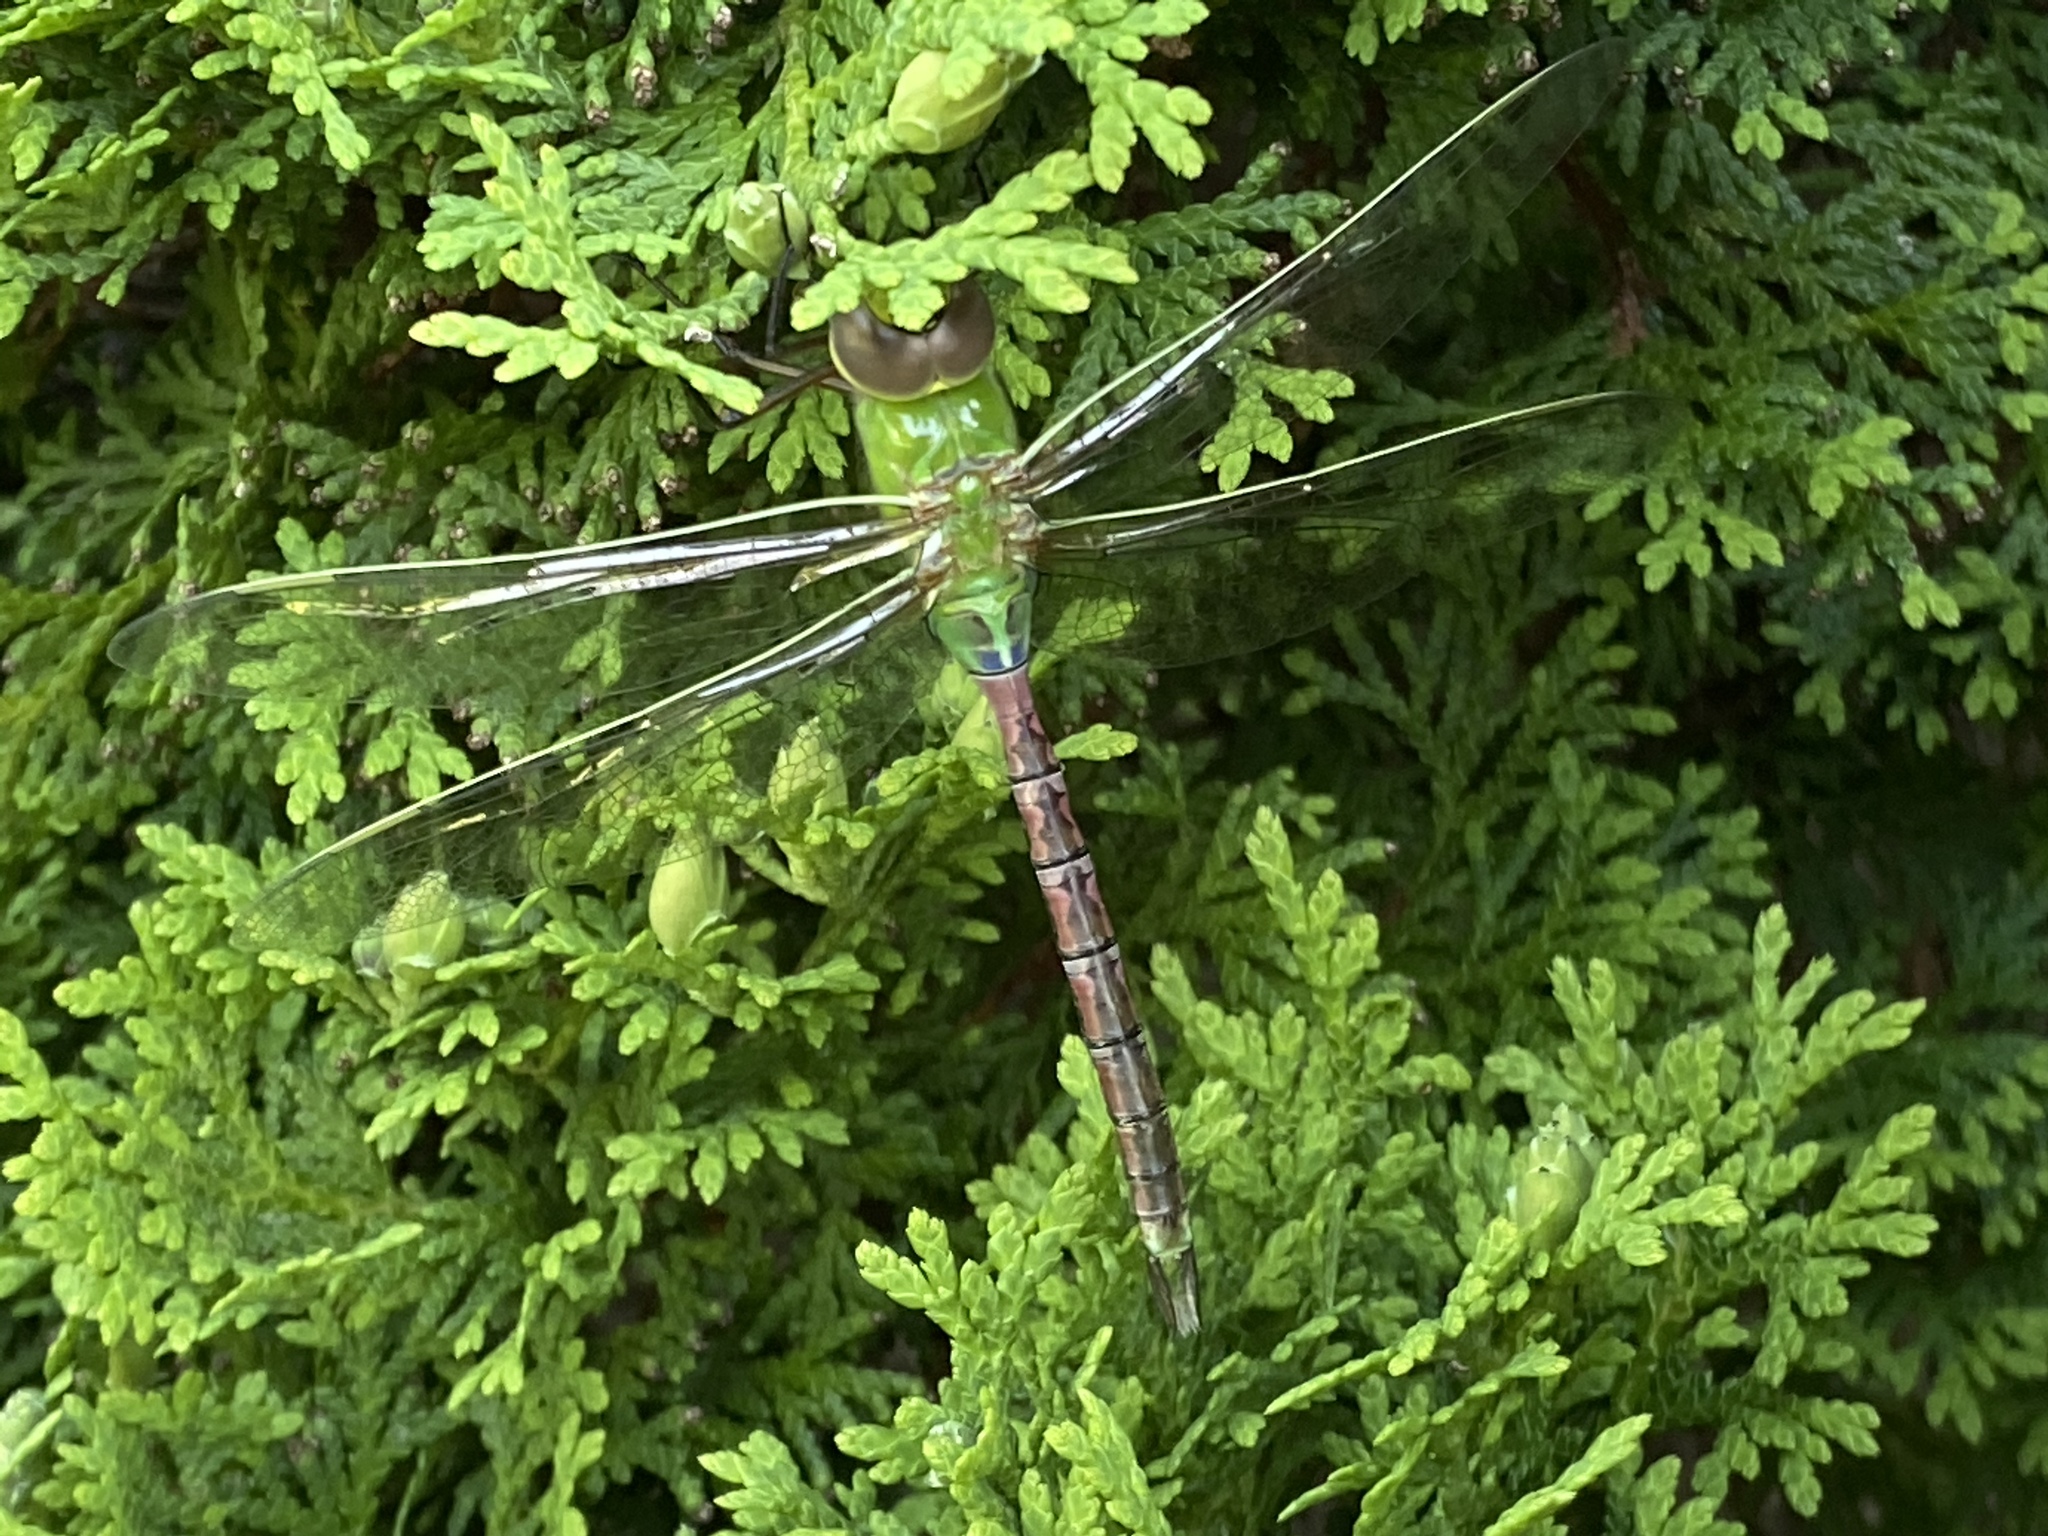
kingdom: Animalia
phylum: Arthropoda
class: Insecta
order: Odonata
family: Aeshnidae
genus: Anax
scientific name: Anax junius
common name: Common green darner
